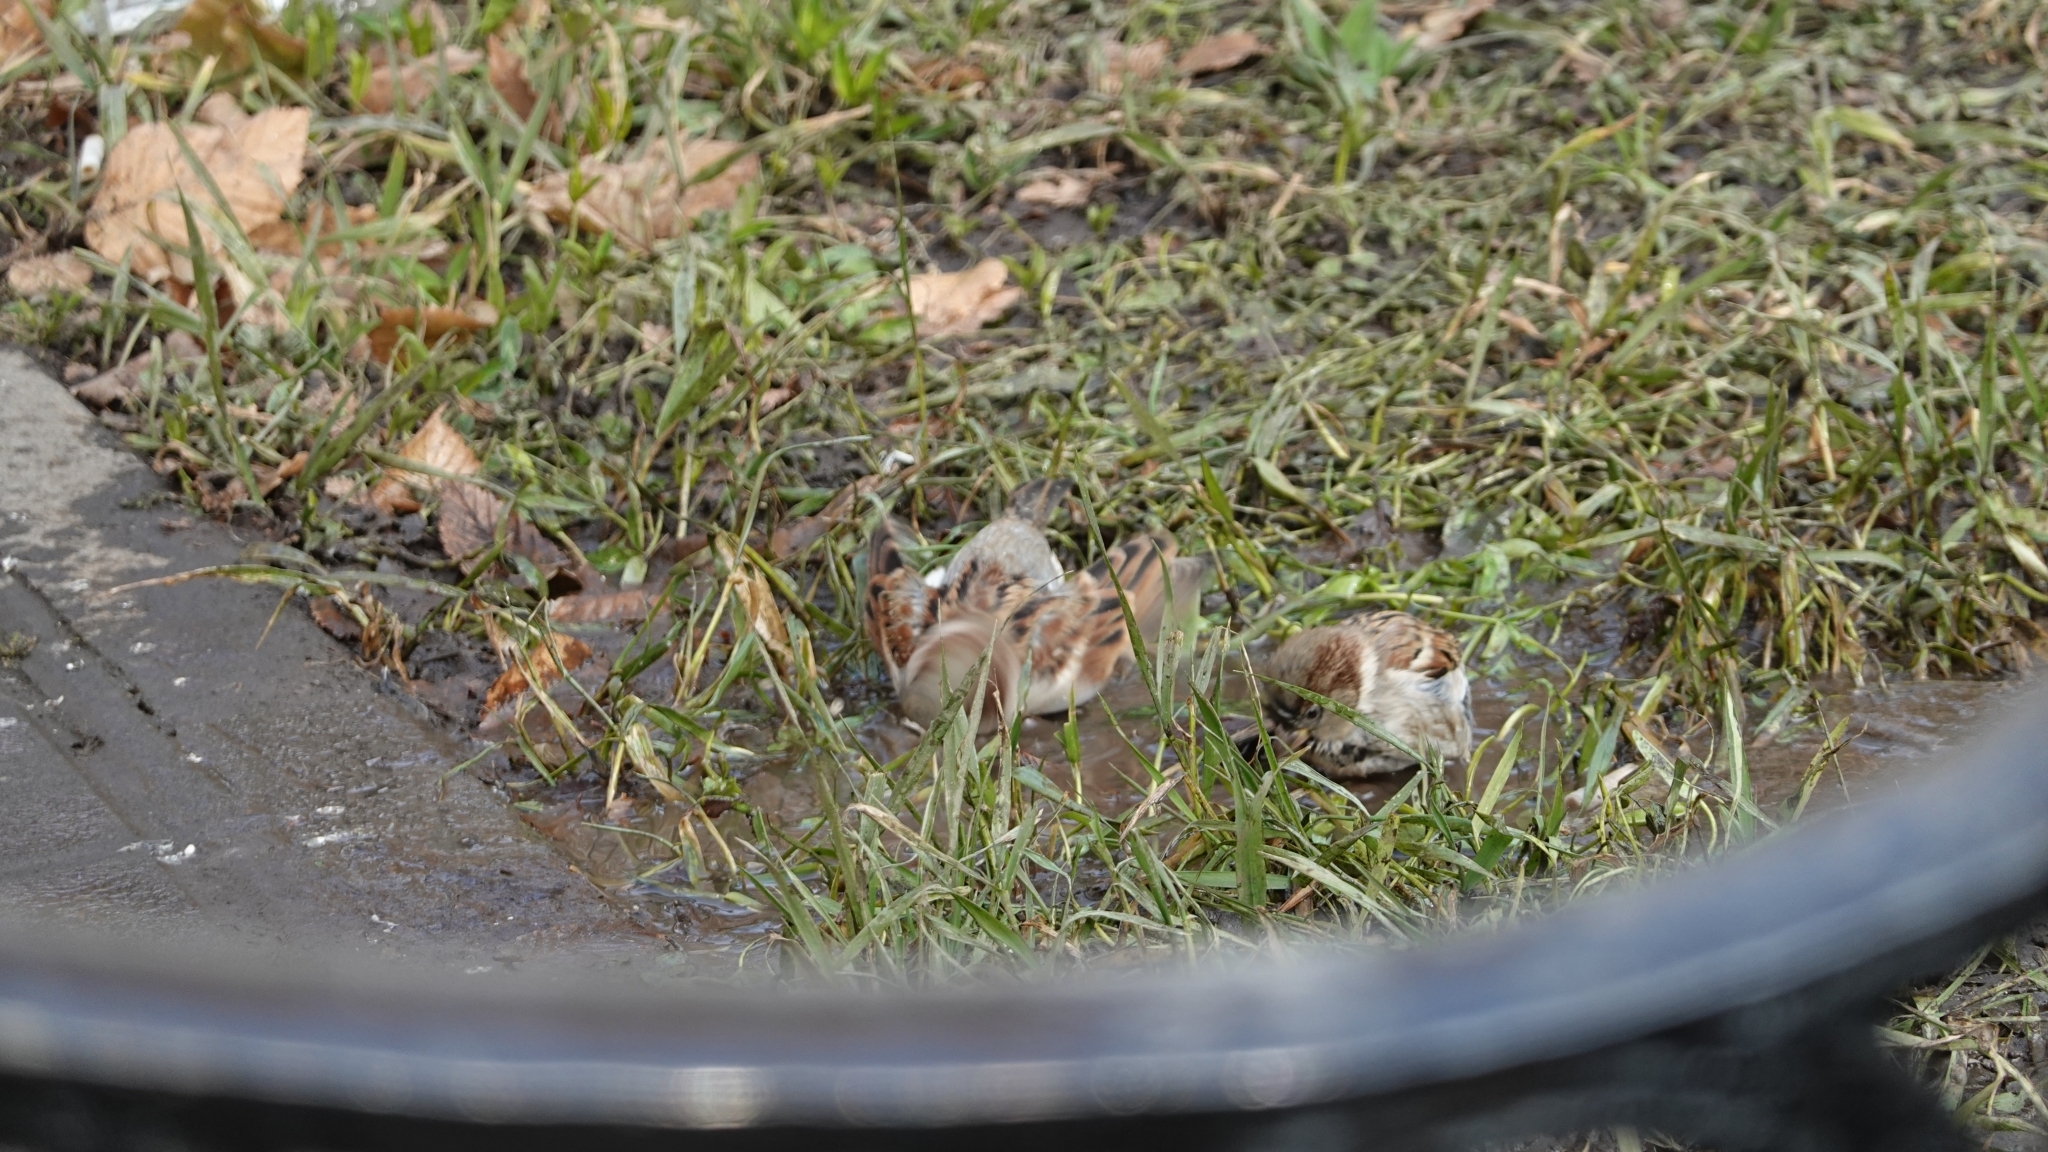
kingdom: Animalia
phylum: Chordata
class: Aves
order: Passeriformes
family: Passeridae
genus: Passer
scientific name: Passer domesticus
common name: House sparrow
